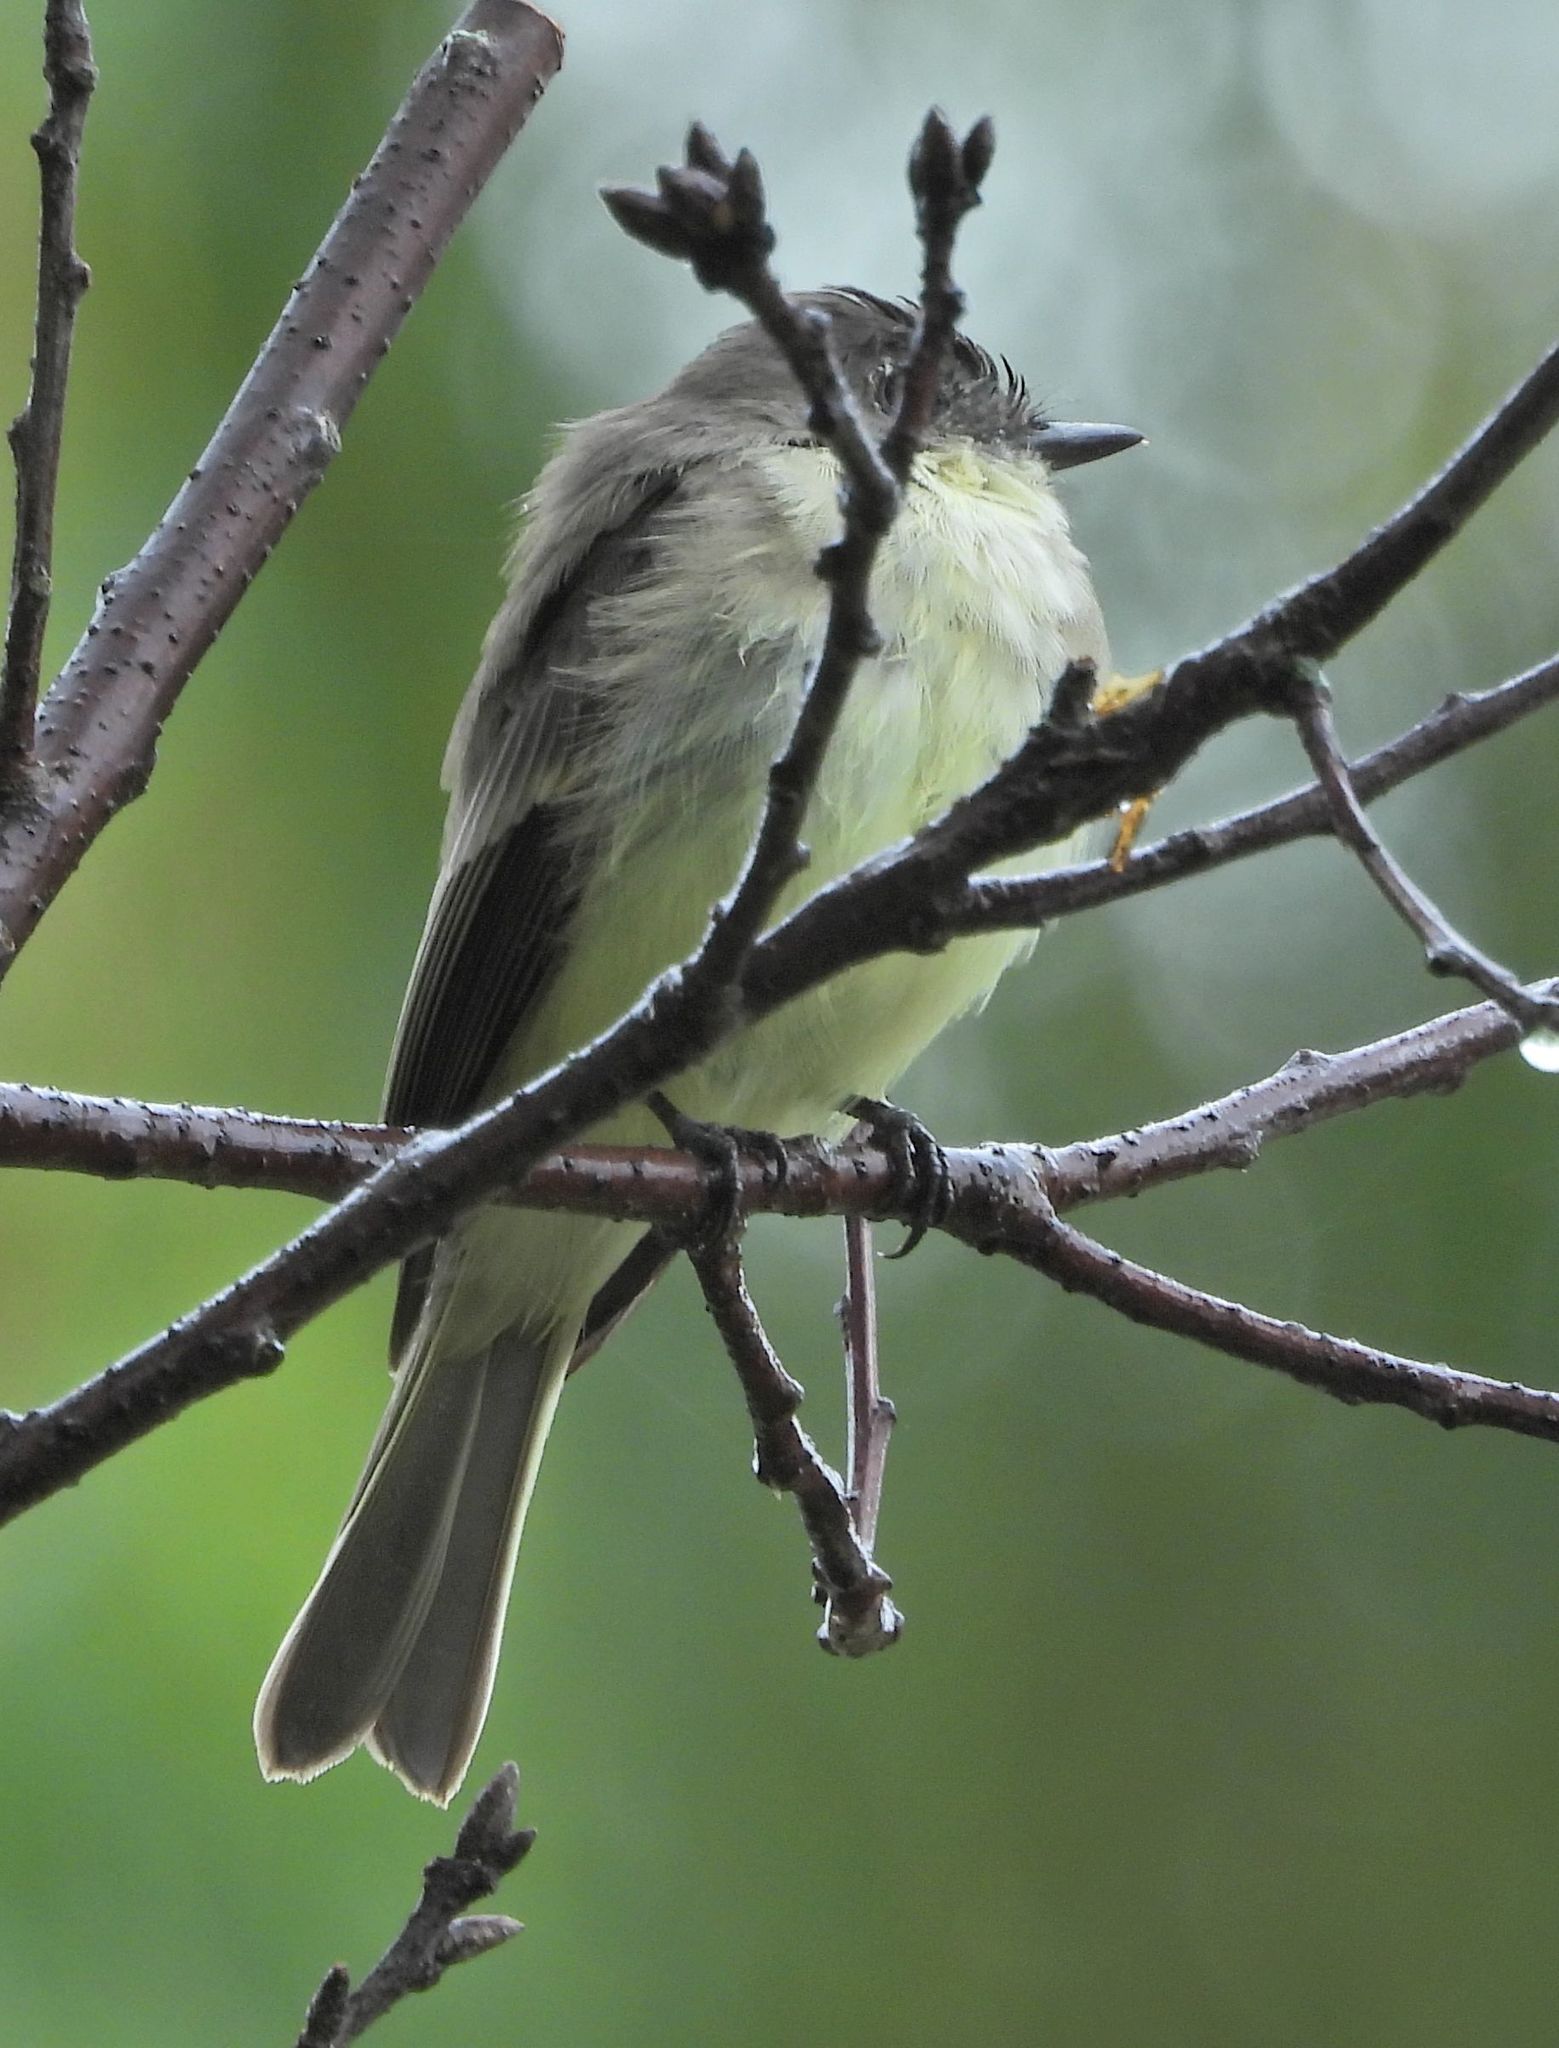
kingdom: Animalia
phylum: Chordata
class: Aves
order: Passeriformes
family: Tyrannidae
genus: Sayornis
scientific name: Sayornis phoebe
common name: Eastern phoebe
